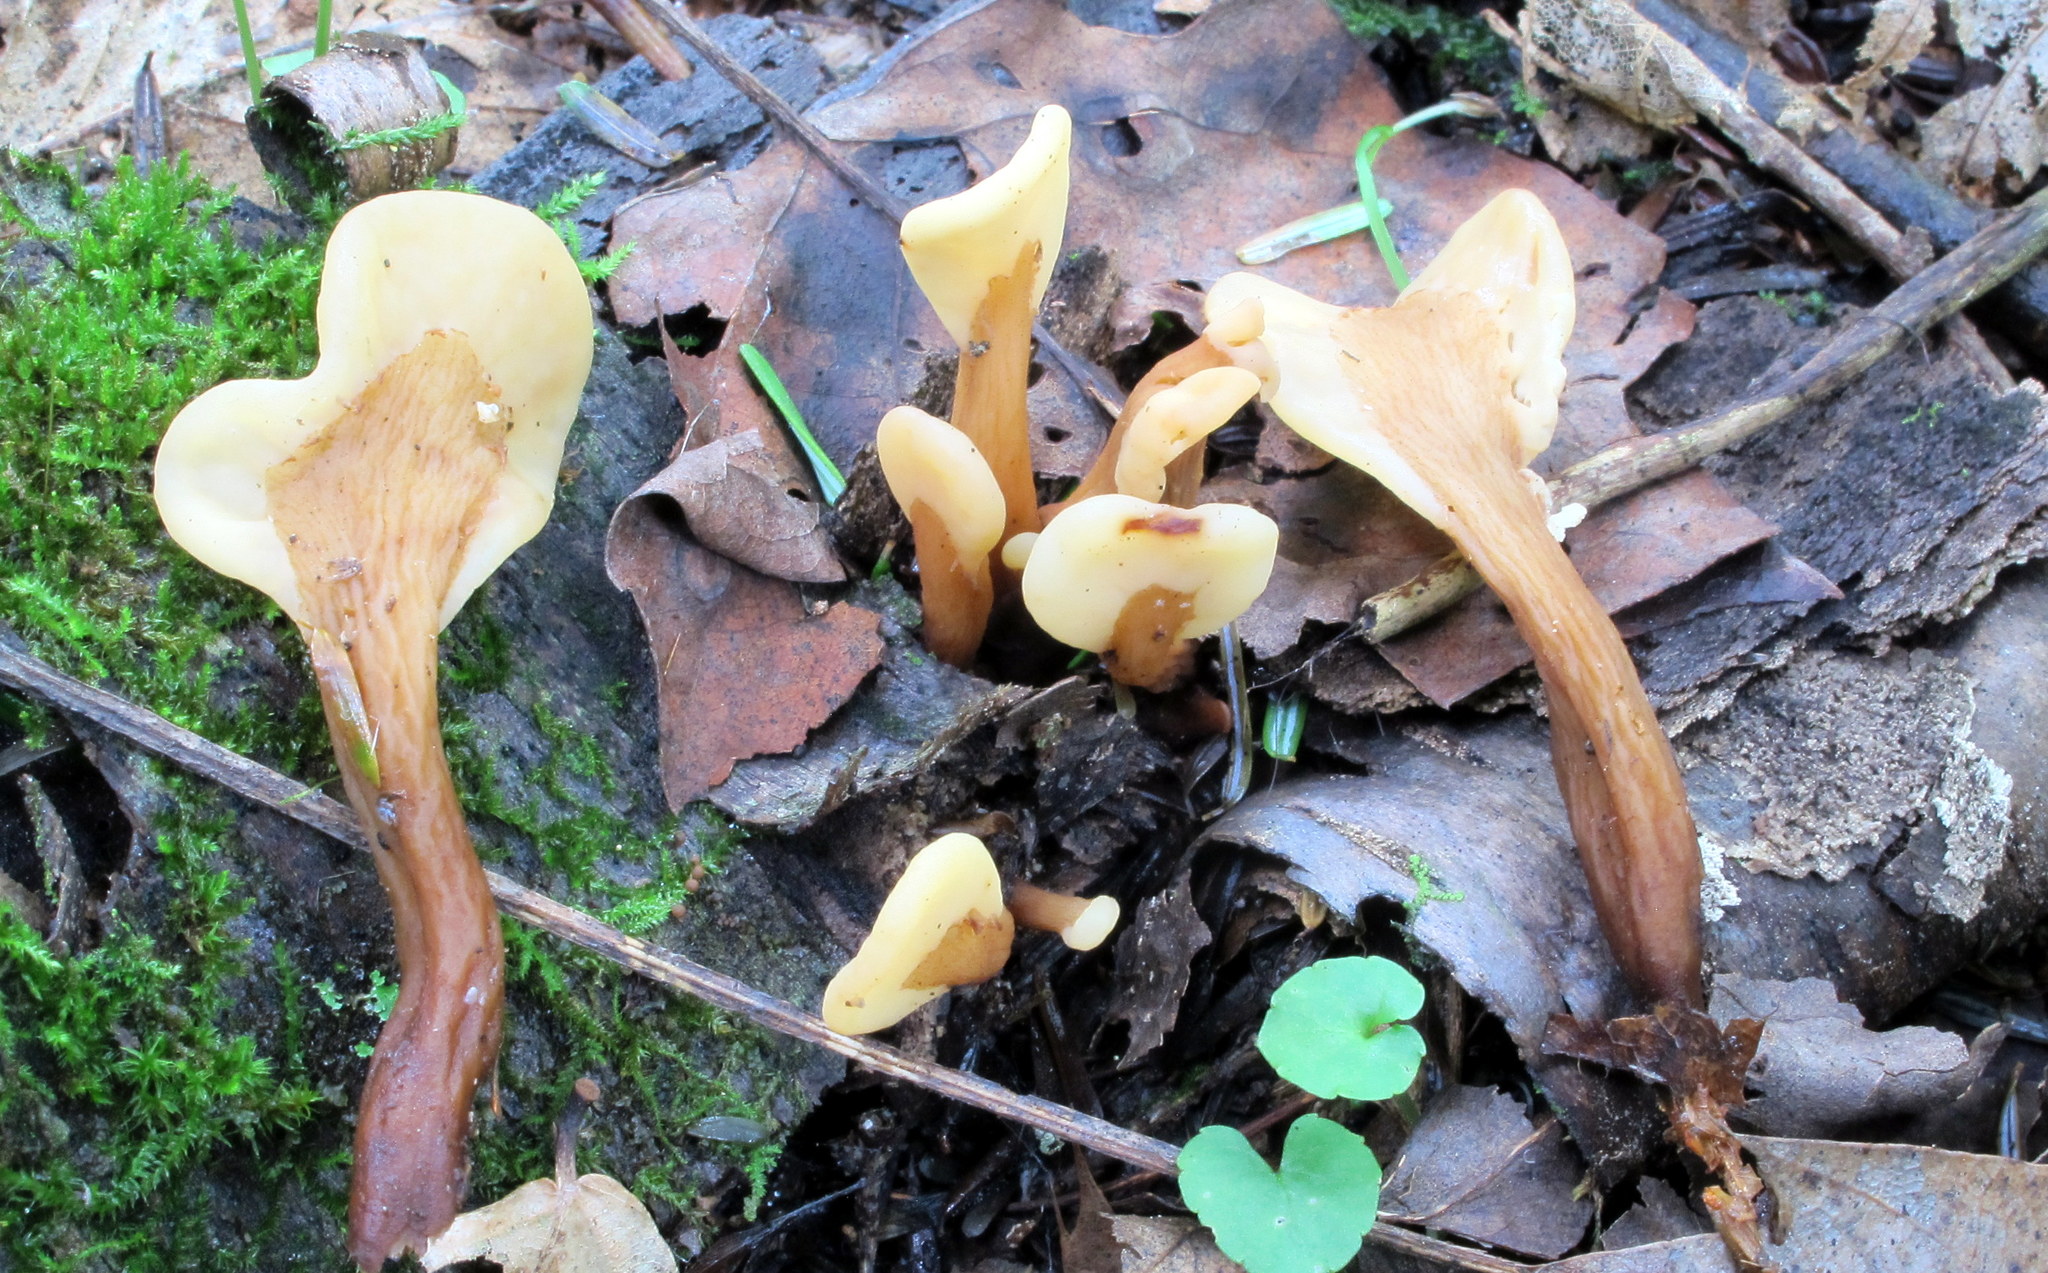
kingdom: Fungi
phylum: Ascomycota
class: Leotiomycetes
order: Rhytismatales
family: Cudoniaceae
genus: Spathulariopsis
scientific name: Spathulariopsis velutipes
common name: Velvet-foot fairy fan
